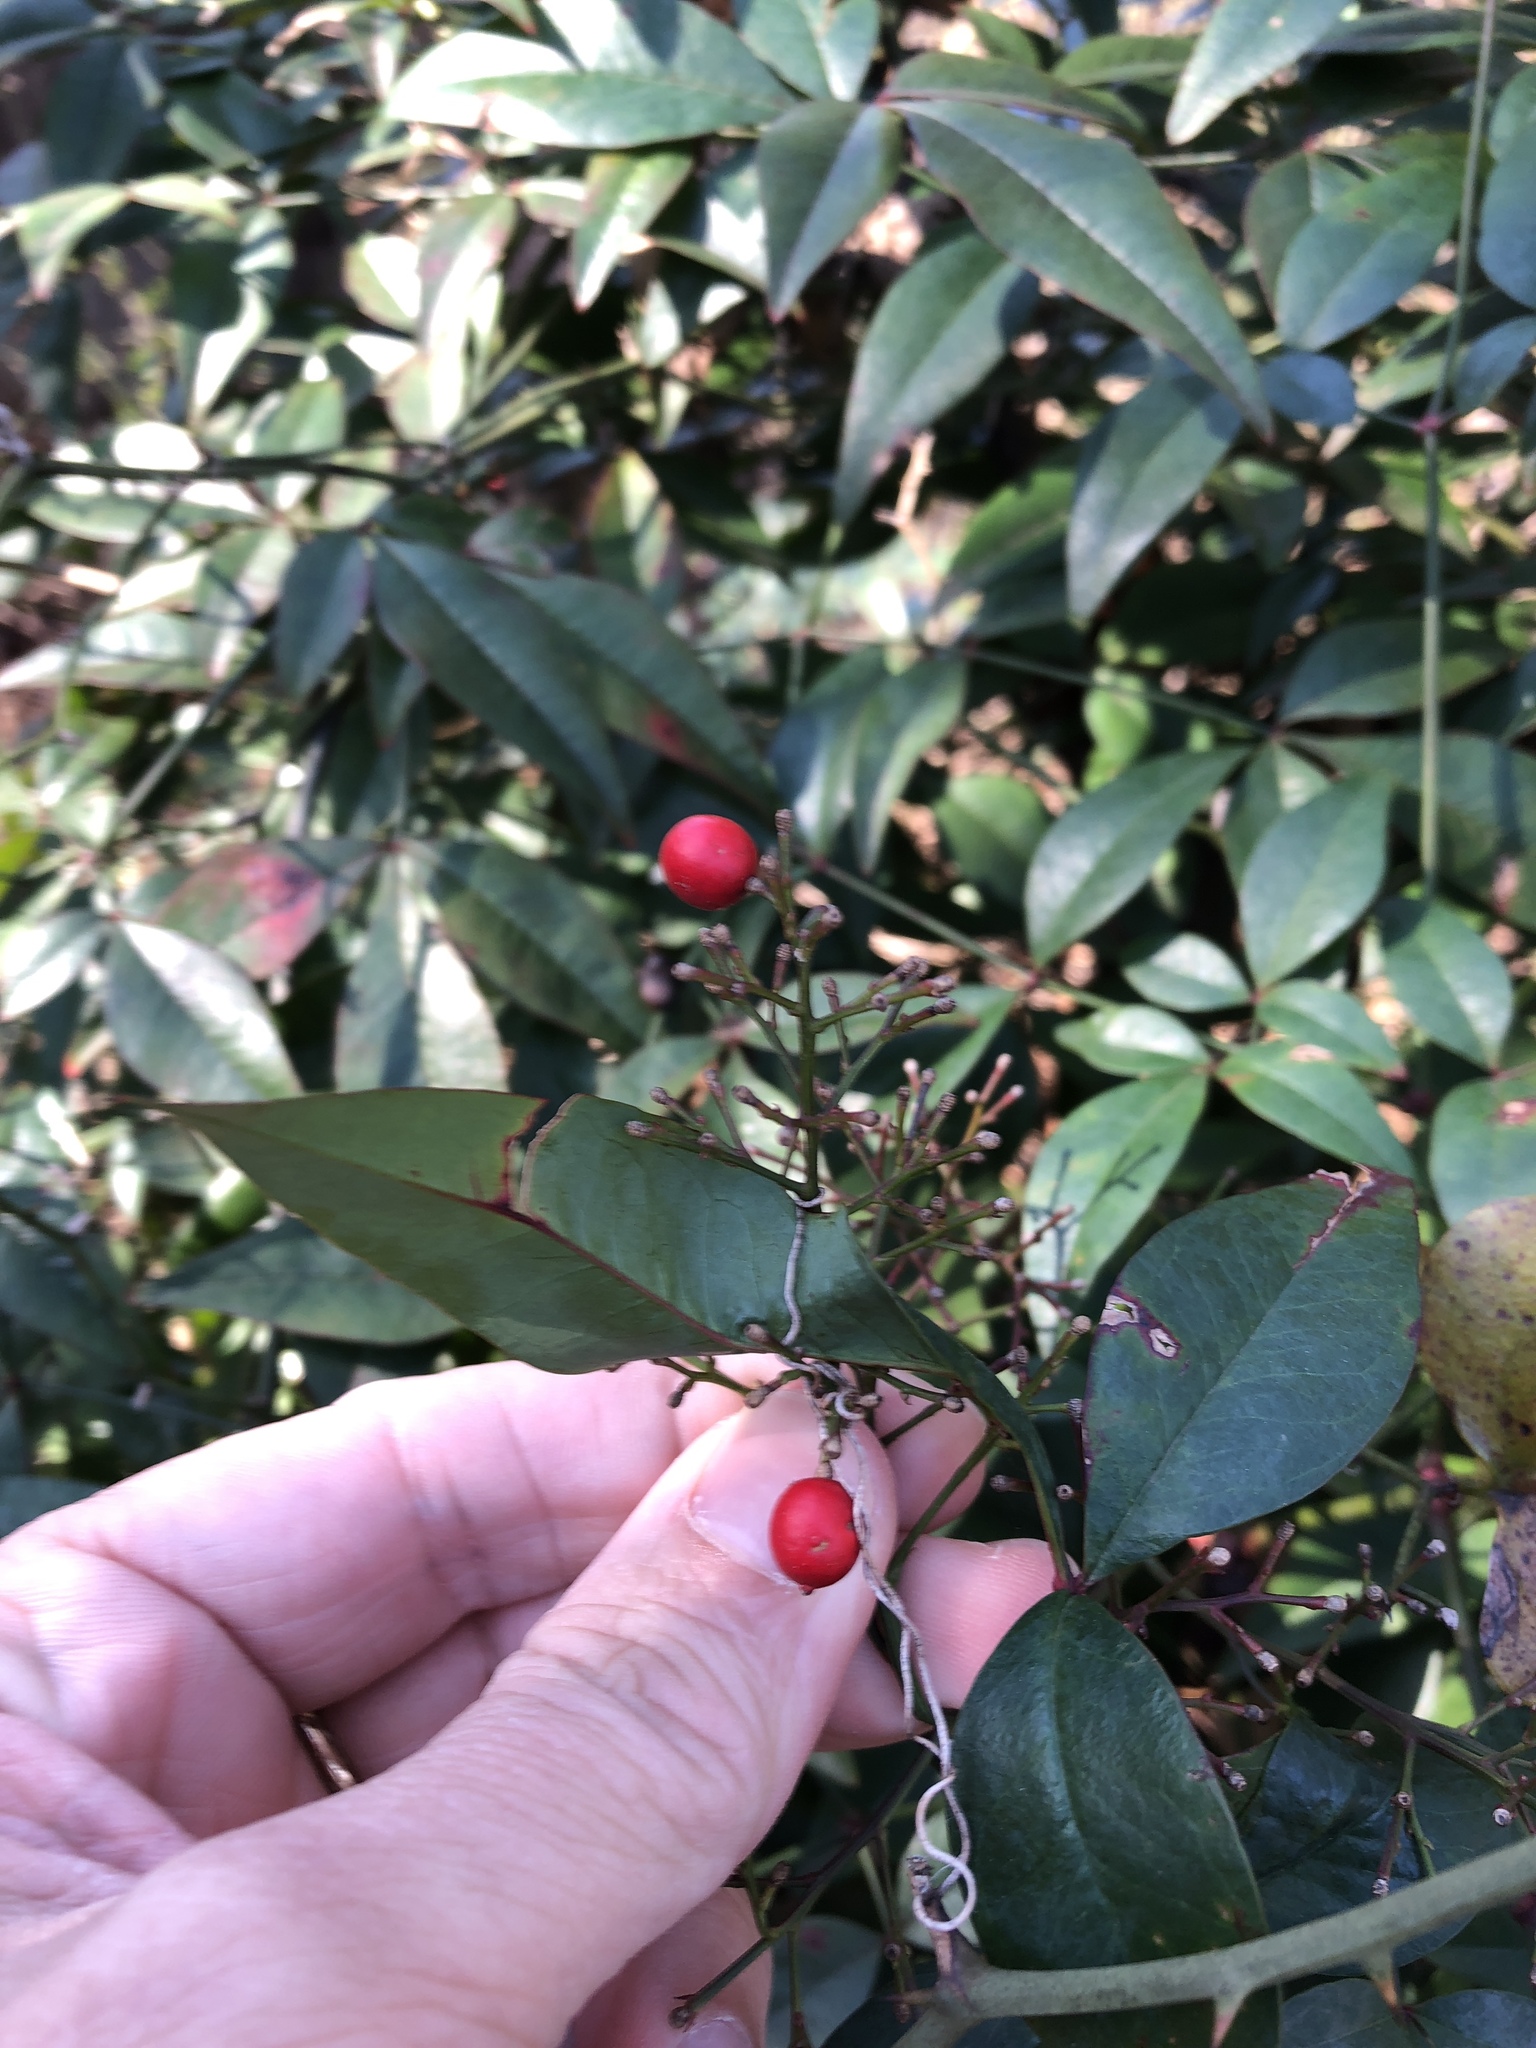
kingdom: Plantae
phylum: Tracheophyta
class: Magnoliopsida
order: Ranunculales
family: Berberidaceae
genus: Nandina
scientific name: Nandina domestica
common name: Sacred bamboo
